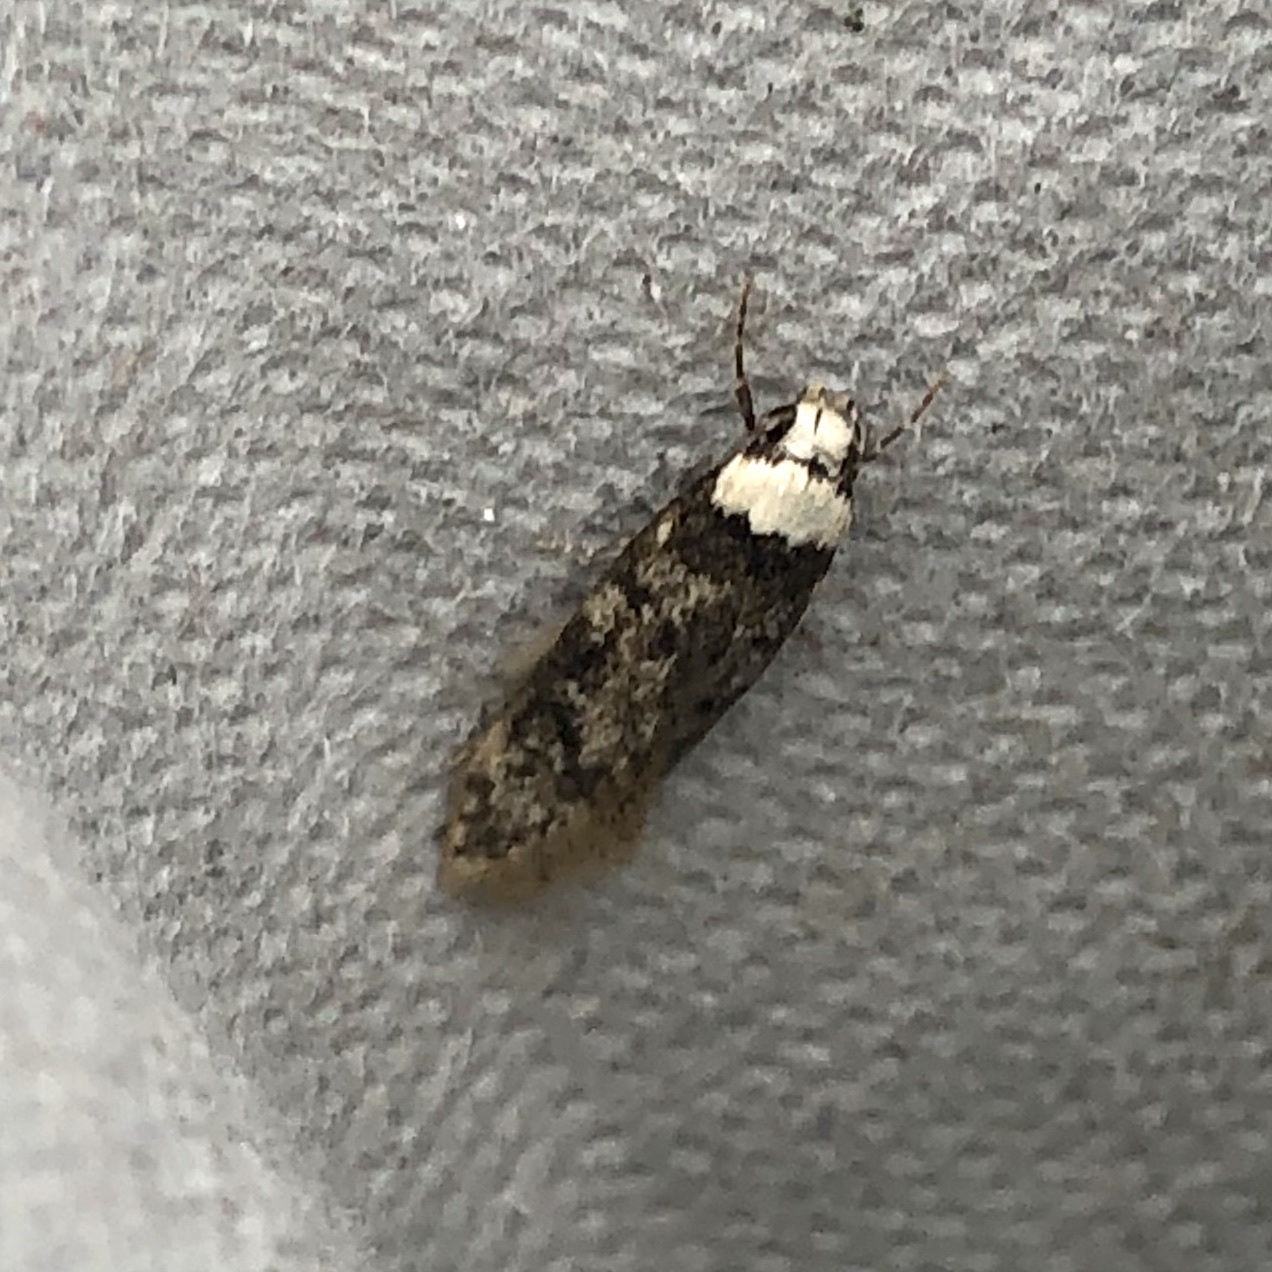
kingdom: Animalia
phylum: Arthropoda
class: Insecta
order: Lepidoptera
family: Oecophoridae
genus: Endrosis
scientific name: Endrosis sarcitrella
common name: White-shouldered house moth
